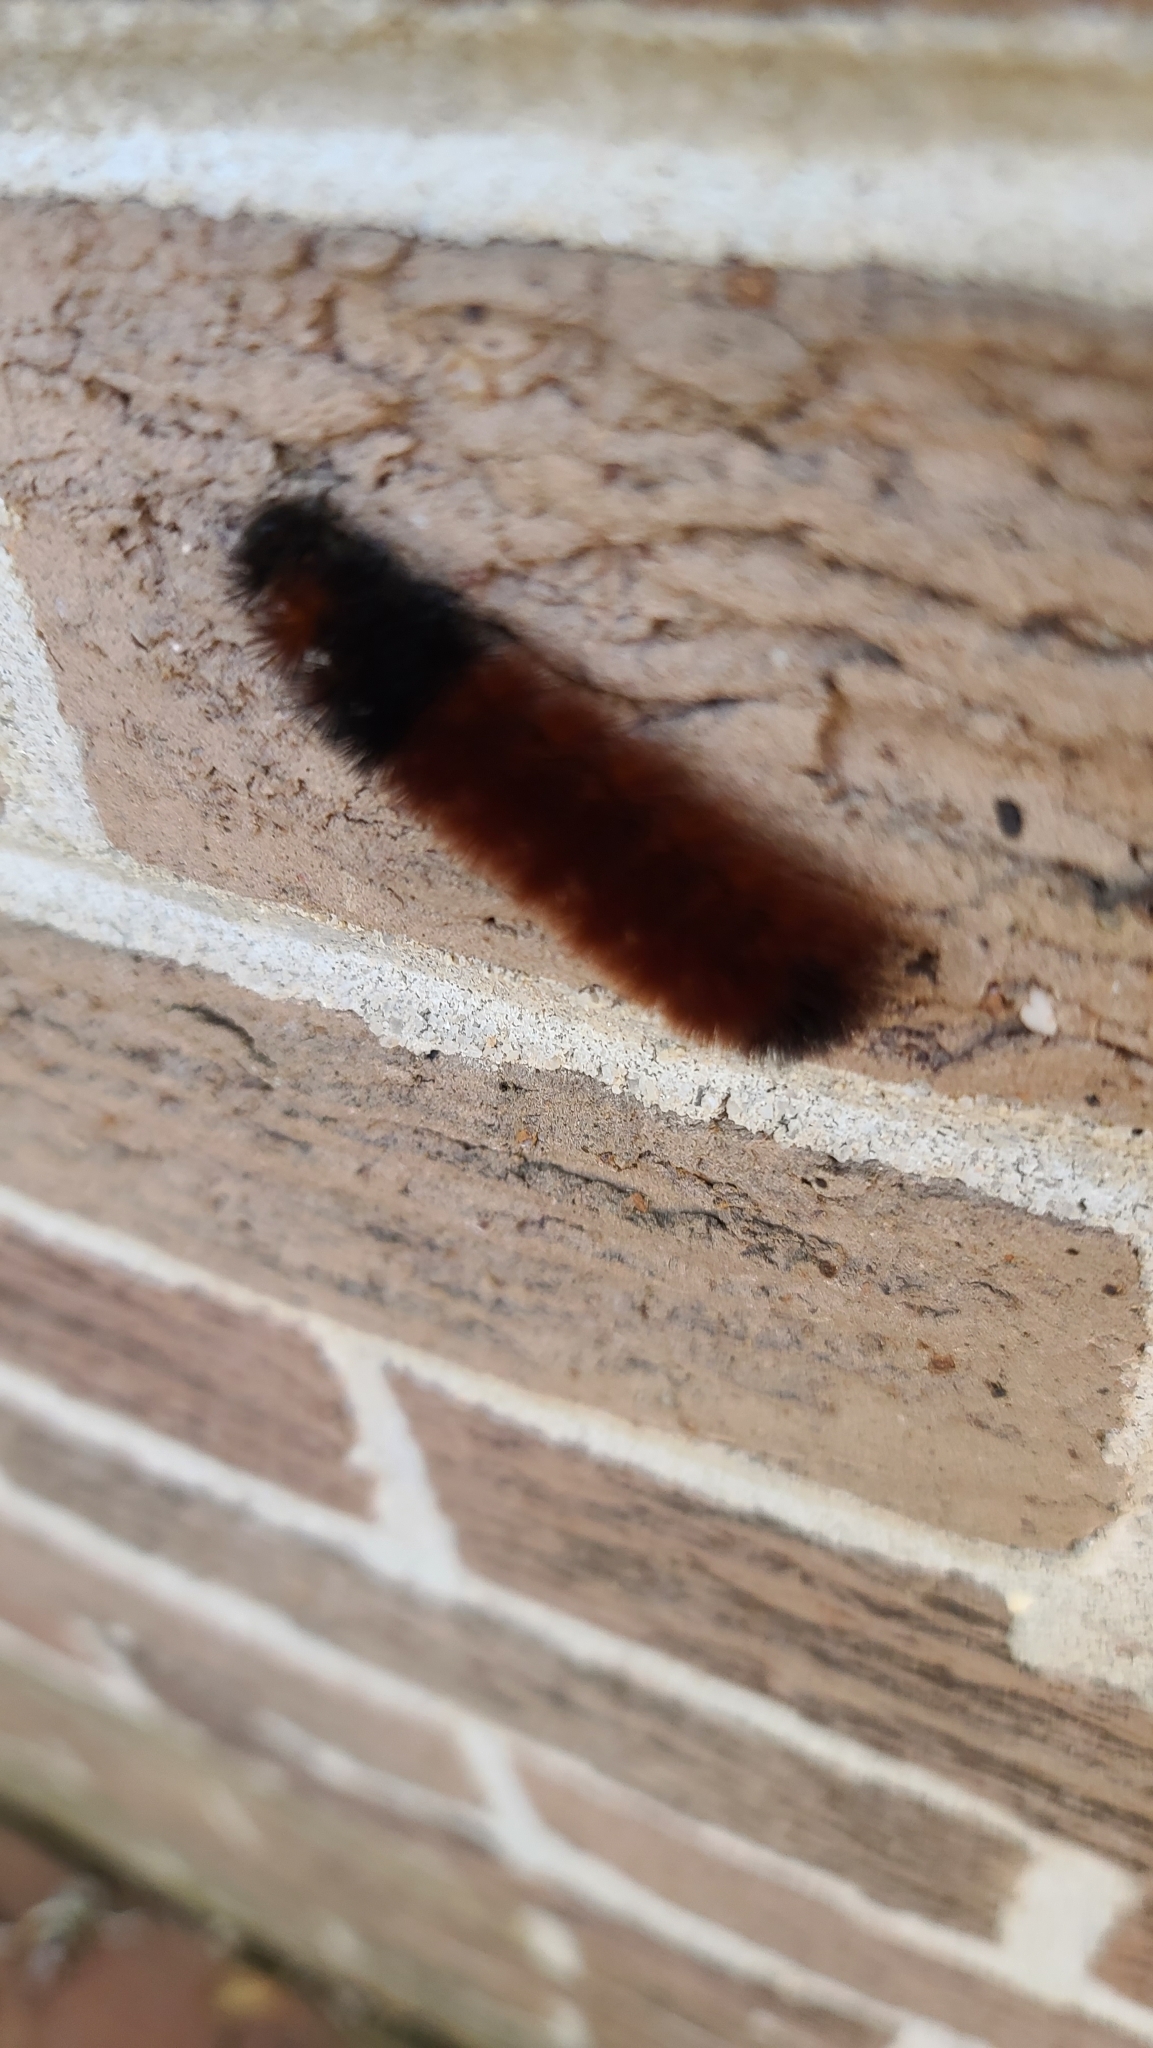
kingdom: Animalia
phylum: Arthropoda
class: Insecta
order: Lepidoptera
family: Erebidae
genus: Pyrrharctia
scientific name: Pyrrharctia isabella
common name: Isabella tiger moth
